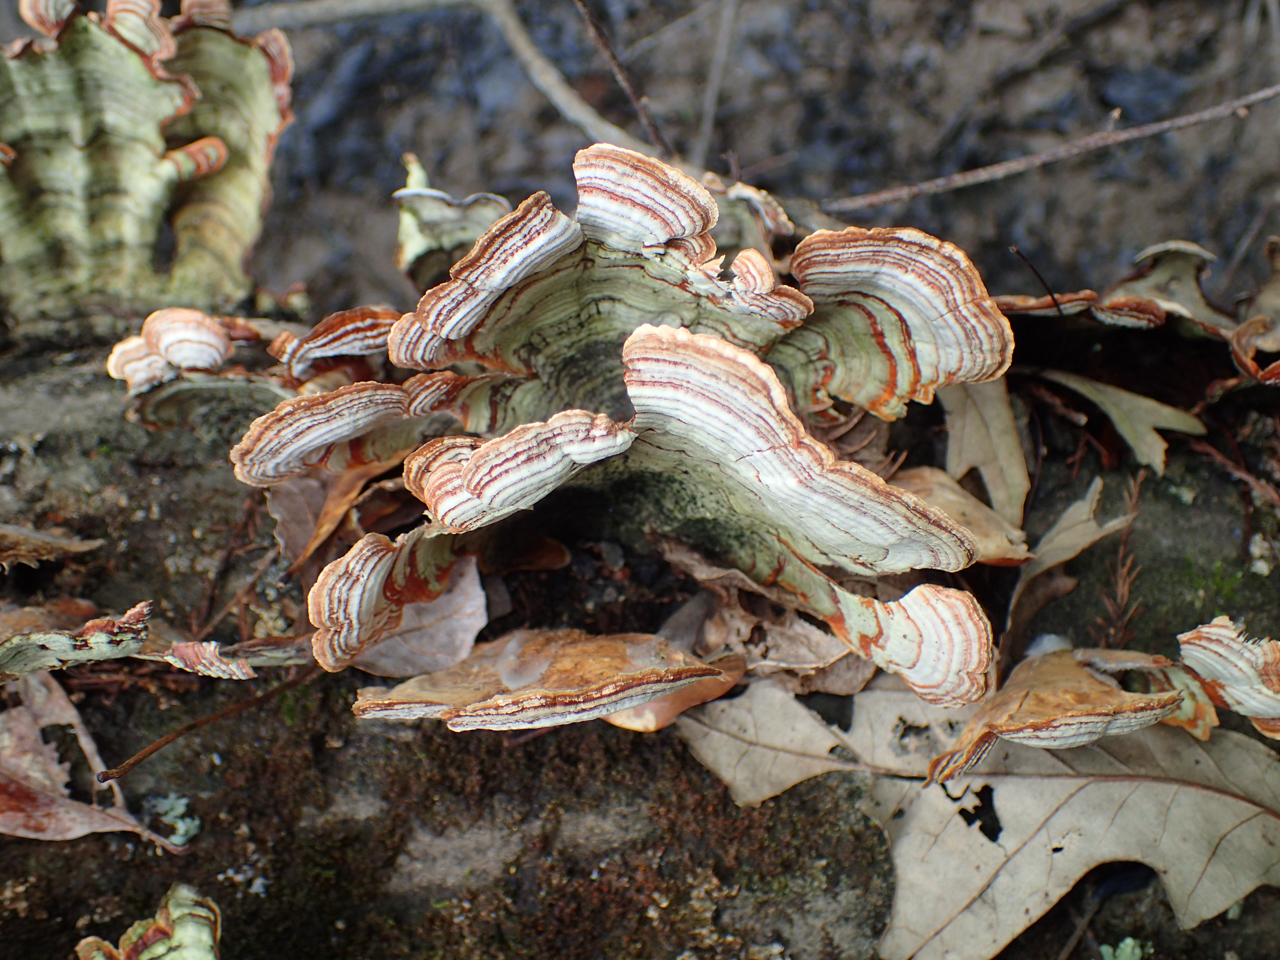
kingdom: Fungi
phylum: Basidiomycota
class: Agaricomycetes
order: Russulales
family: Stereaceae
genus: Stereum
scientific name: Stereum lobatum
